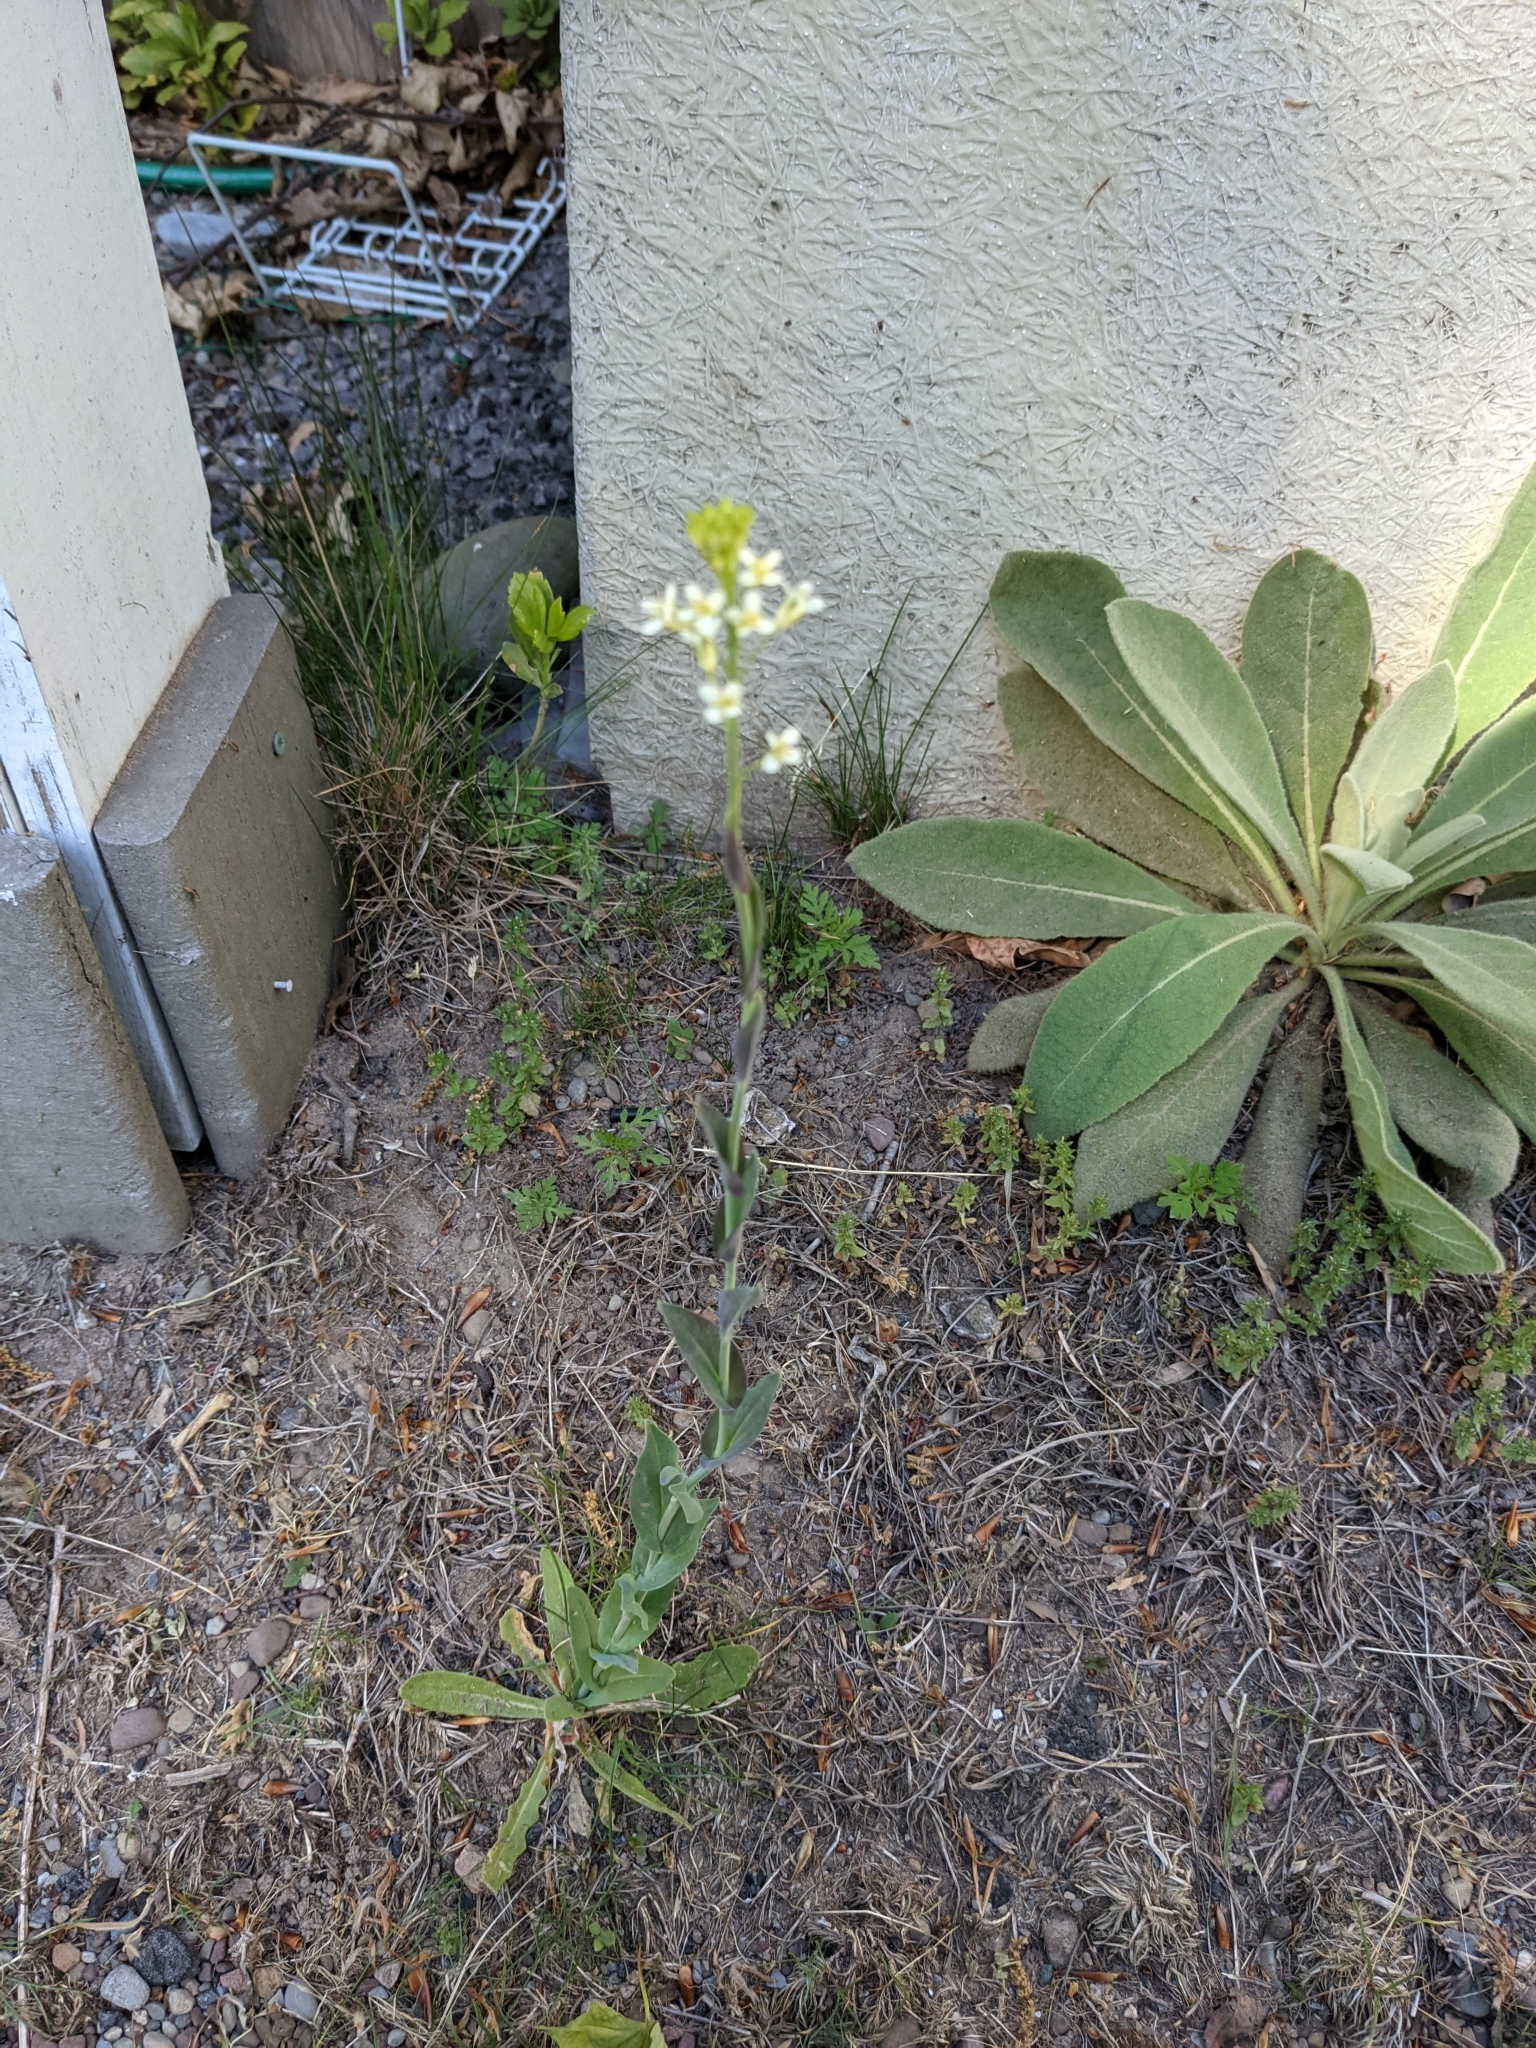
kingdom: Plantae
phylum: Tracheophyta
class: Magnoliopsida
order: Brassicales
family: Brassicaceae
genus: Turritis
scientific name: Turritis glabra
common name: Tower rockcress
